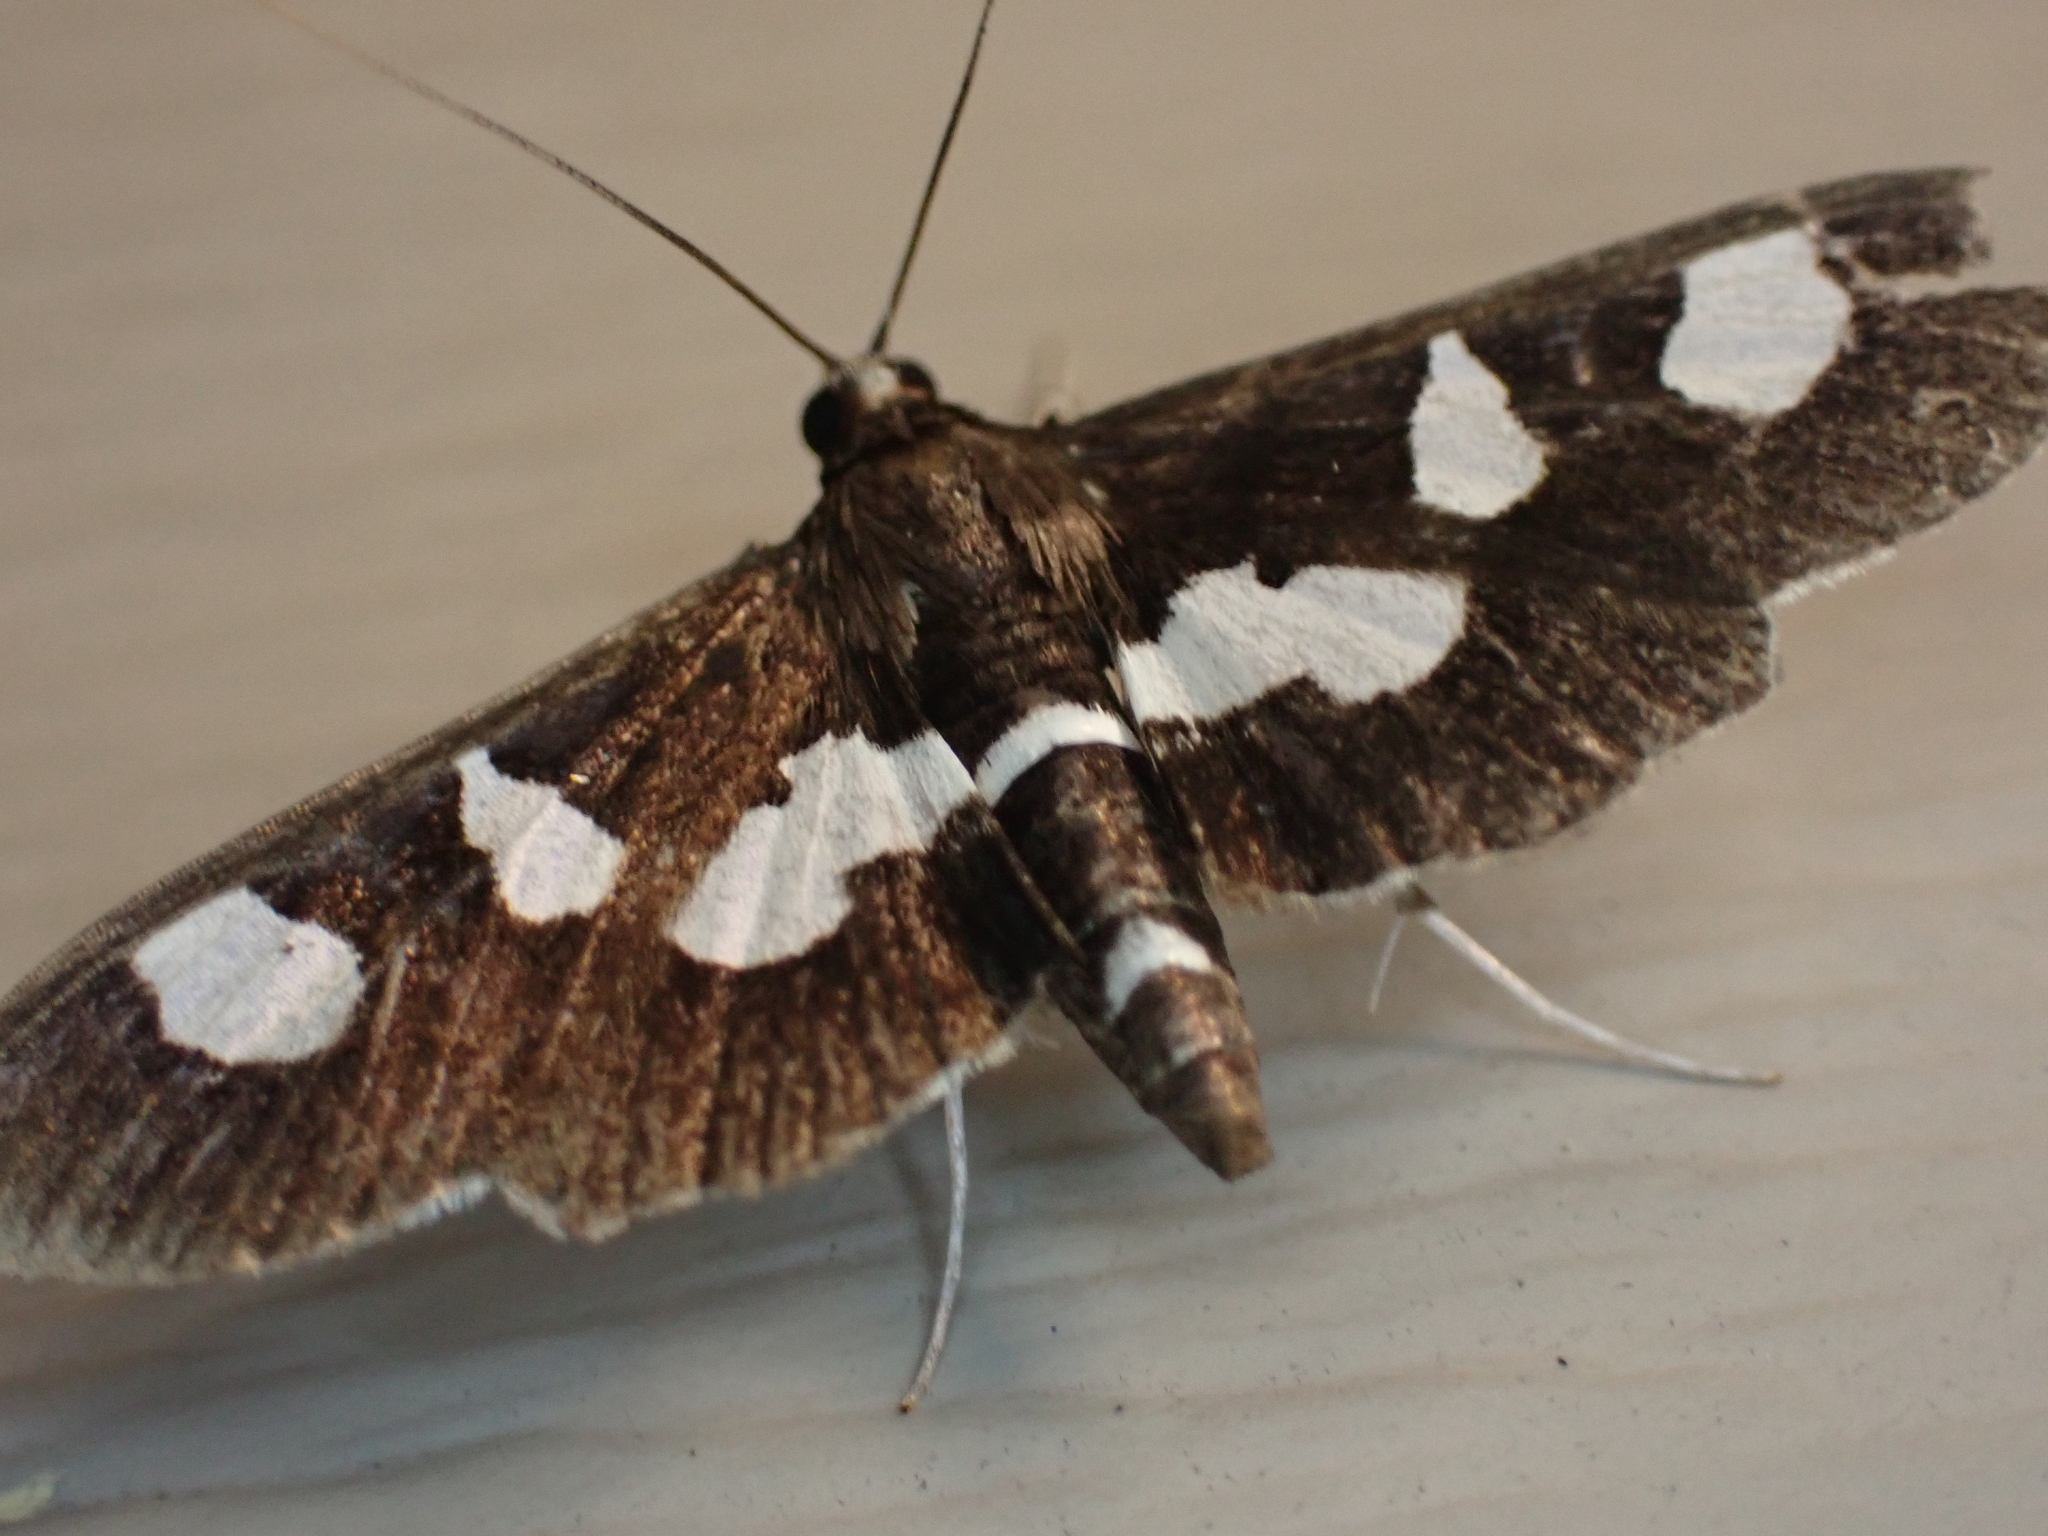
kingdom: Animalia
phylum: Arthropoda
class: Insecta
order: Lepidoptera
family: Crambidae
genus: Desmia
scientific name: Desmia funeralis
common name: Grape leaf folder moth
